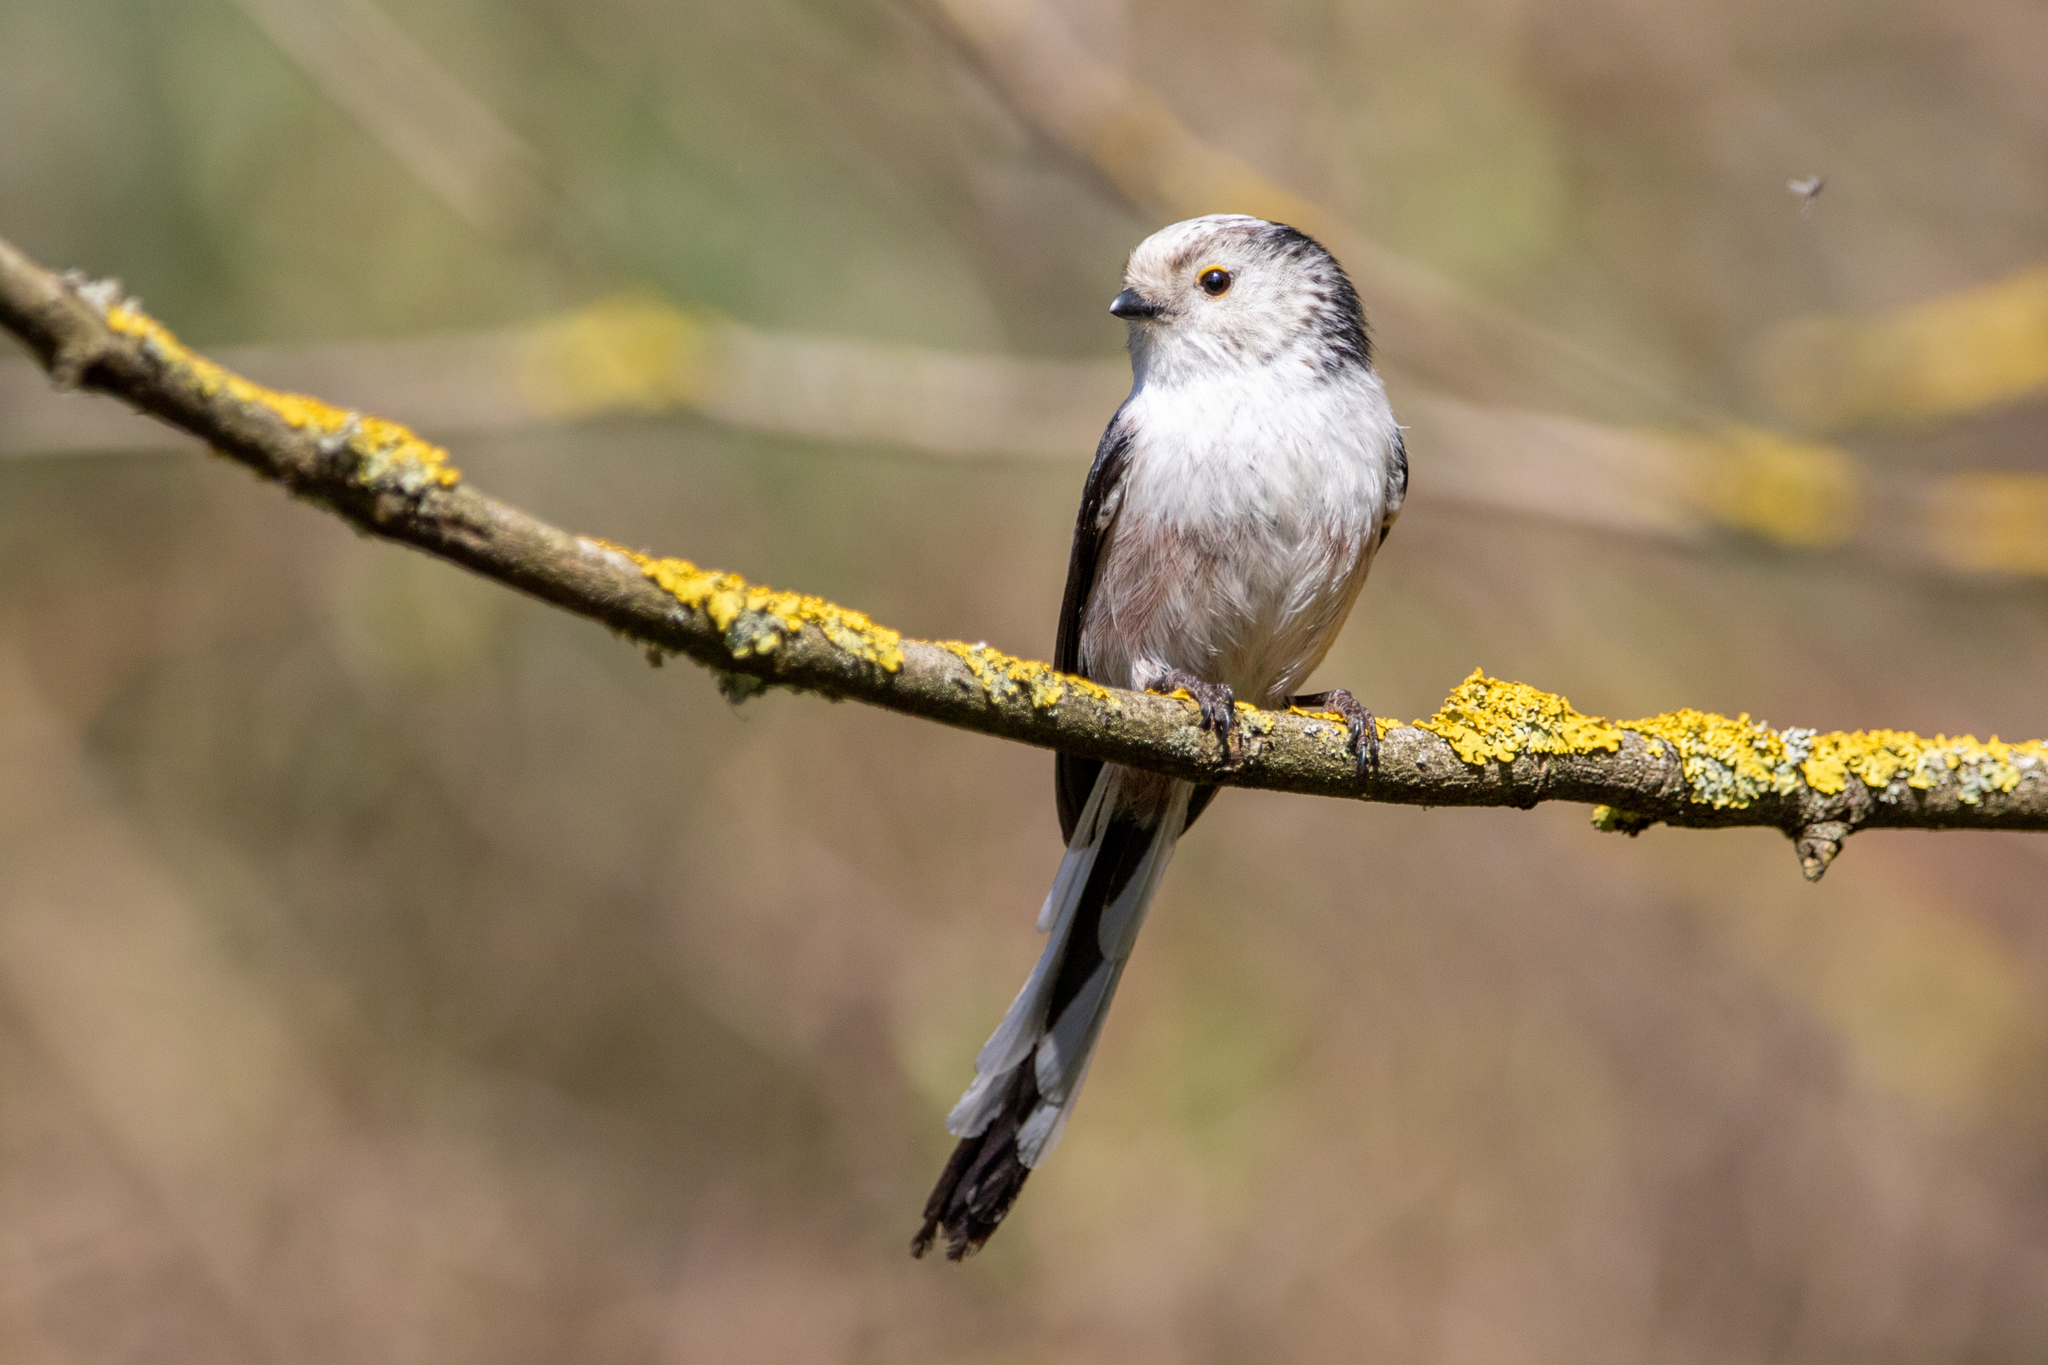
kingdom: Animalia
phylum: Chordata
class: Aves
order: Passeriformes
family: Aegithalidae
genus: Aegithalos
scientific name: Aegithalos caudatus
